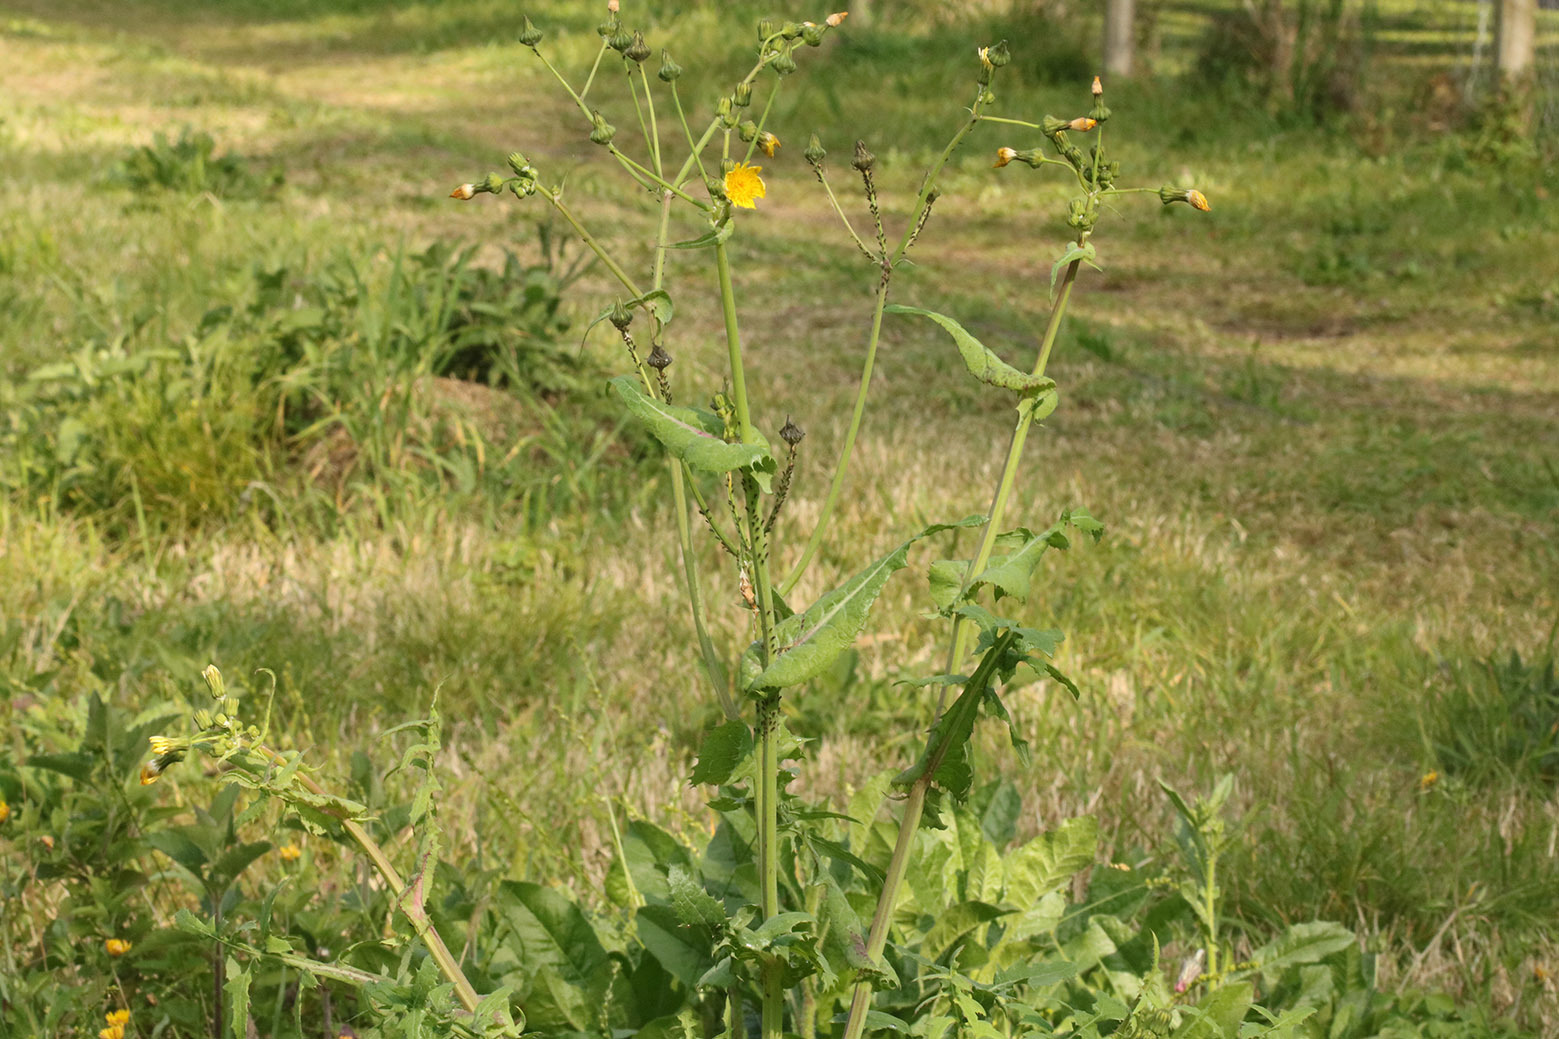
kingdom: Plantae
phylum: Tracheophyta
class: Magnoliopsida
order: Asterales
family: Asteraceae
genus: Sonchus
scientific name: Sonchus oleraceus
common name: Common sowthistle
